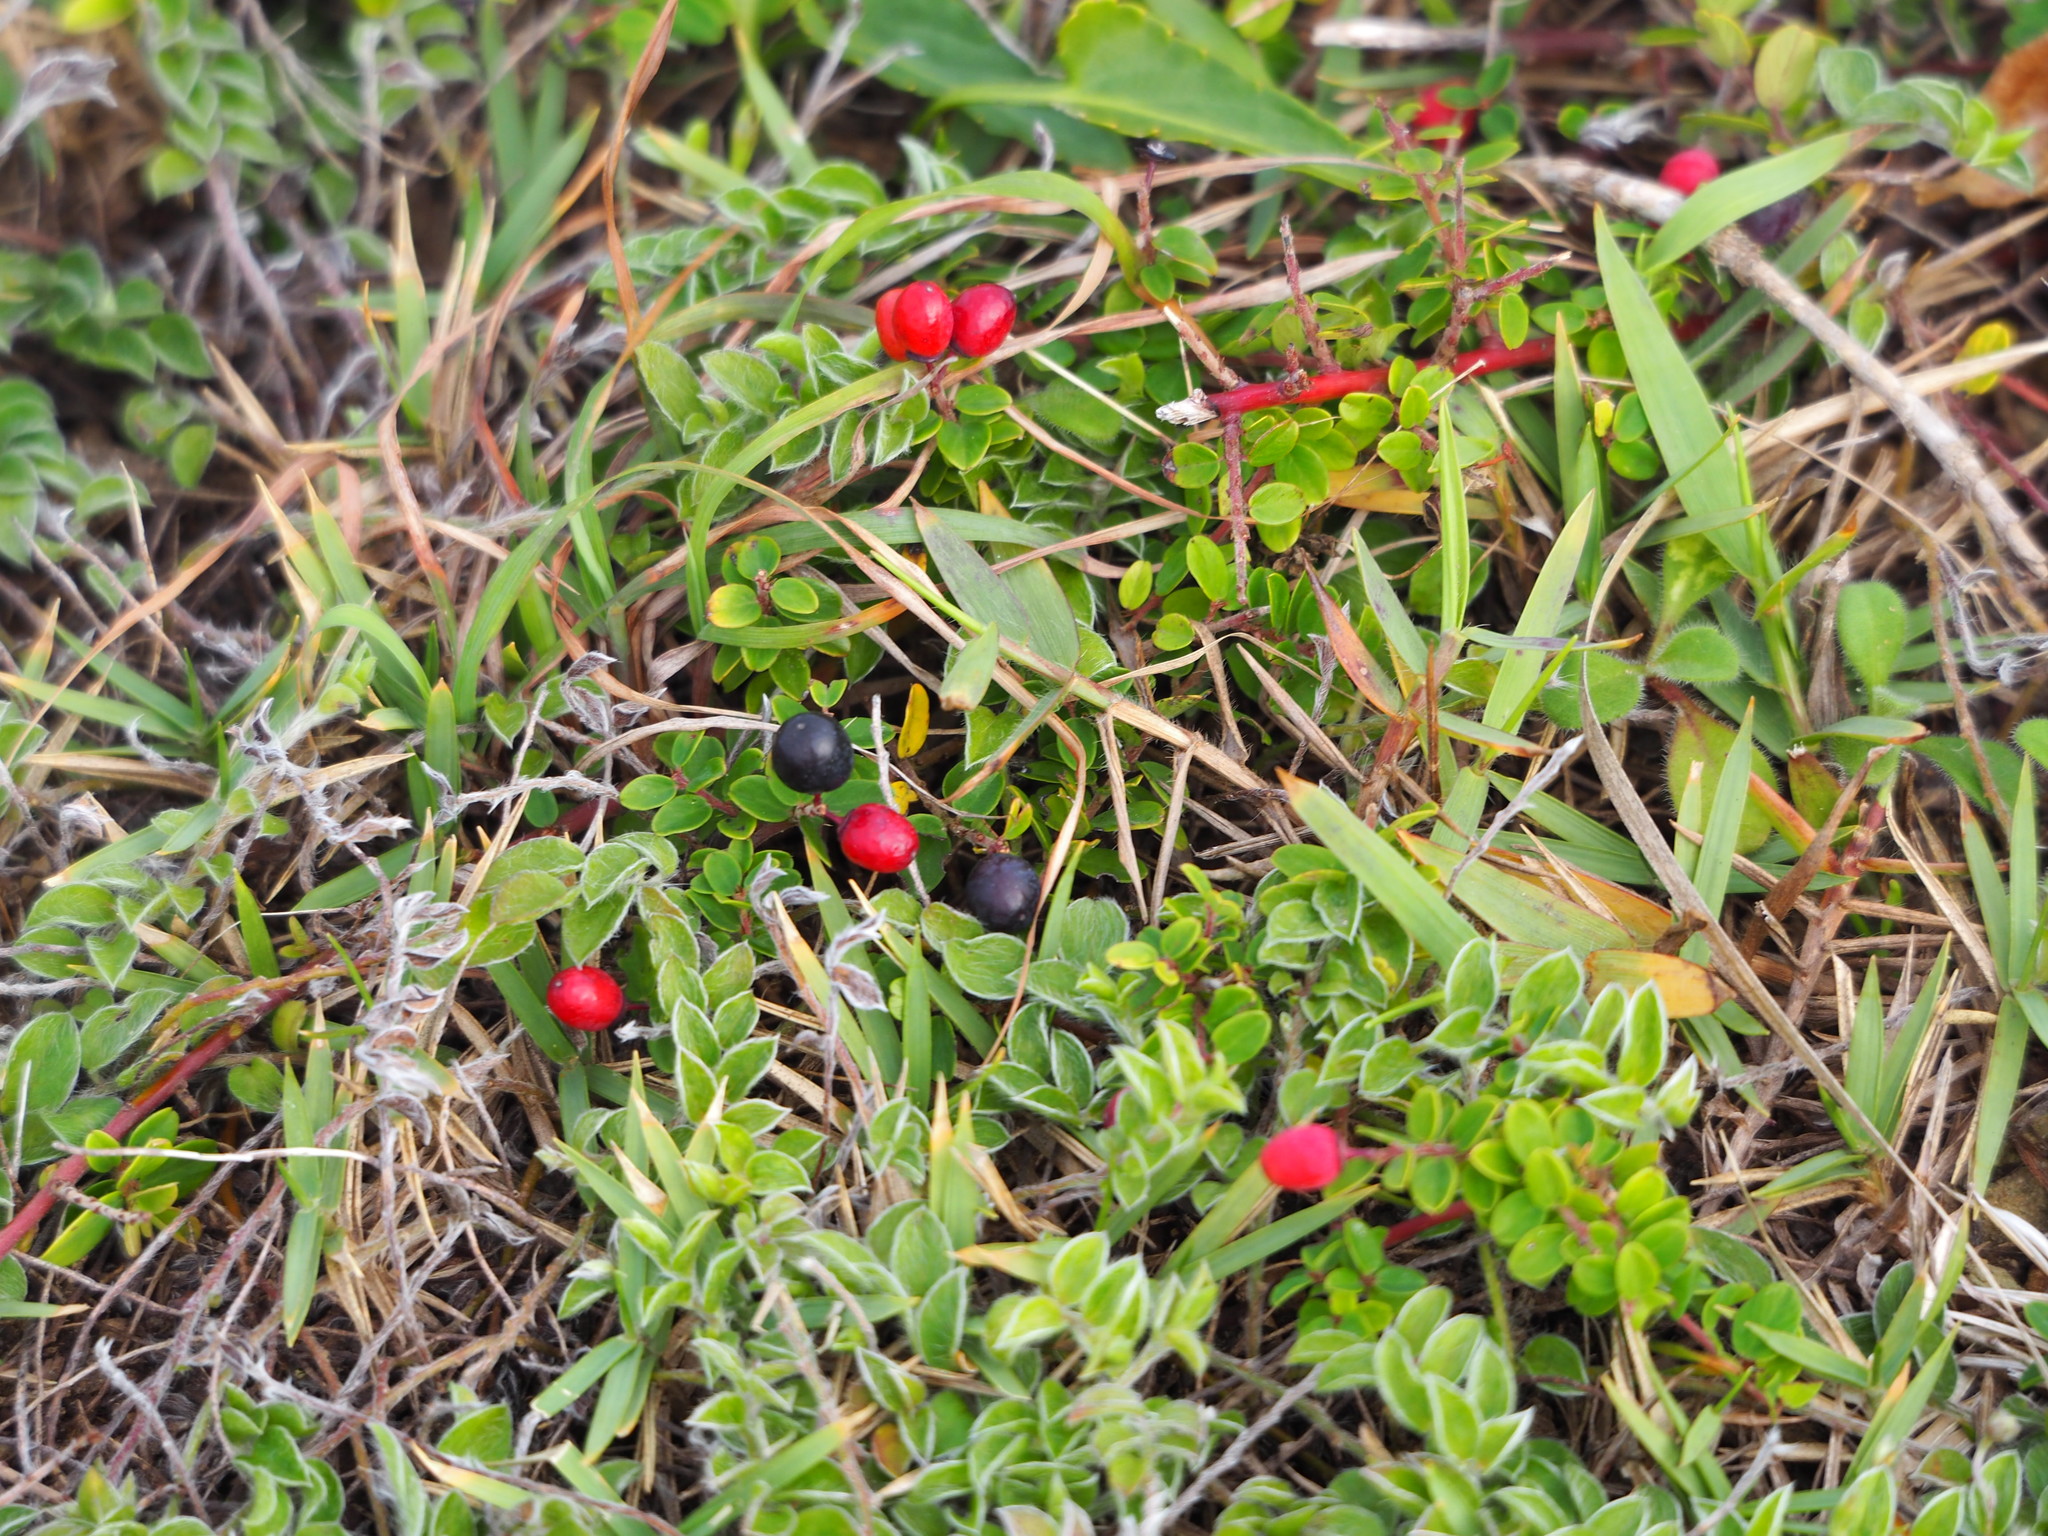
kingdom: Plantae
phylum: Tracheophyta
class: Magnoliopsida
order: Rosales
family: Rhamnaceae
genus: Berchemia
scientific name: Berchemia lineata
